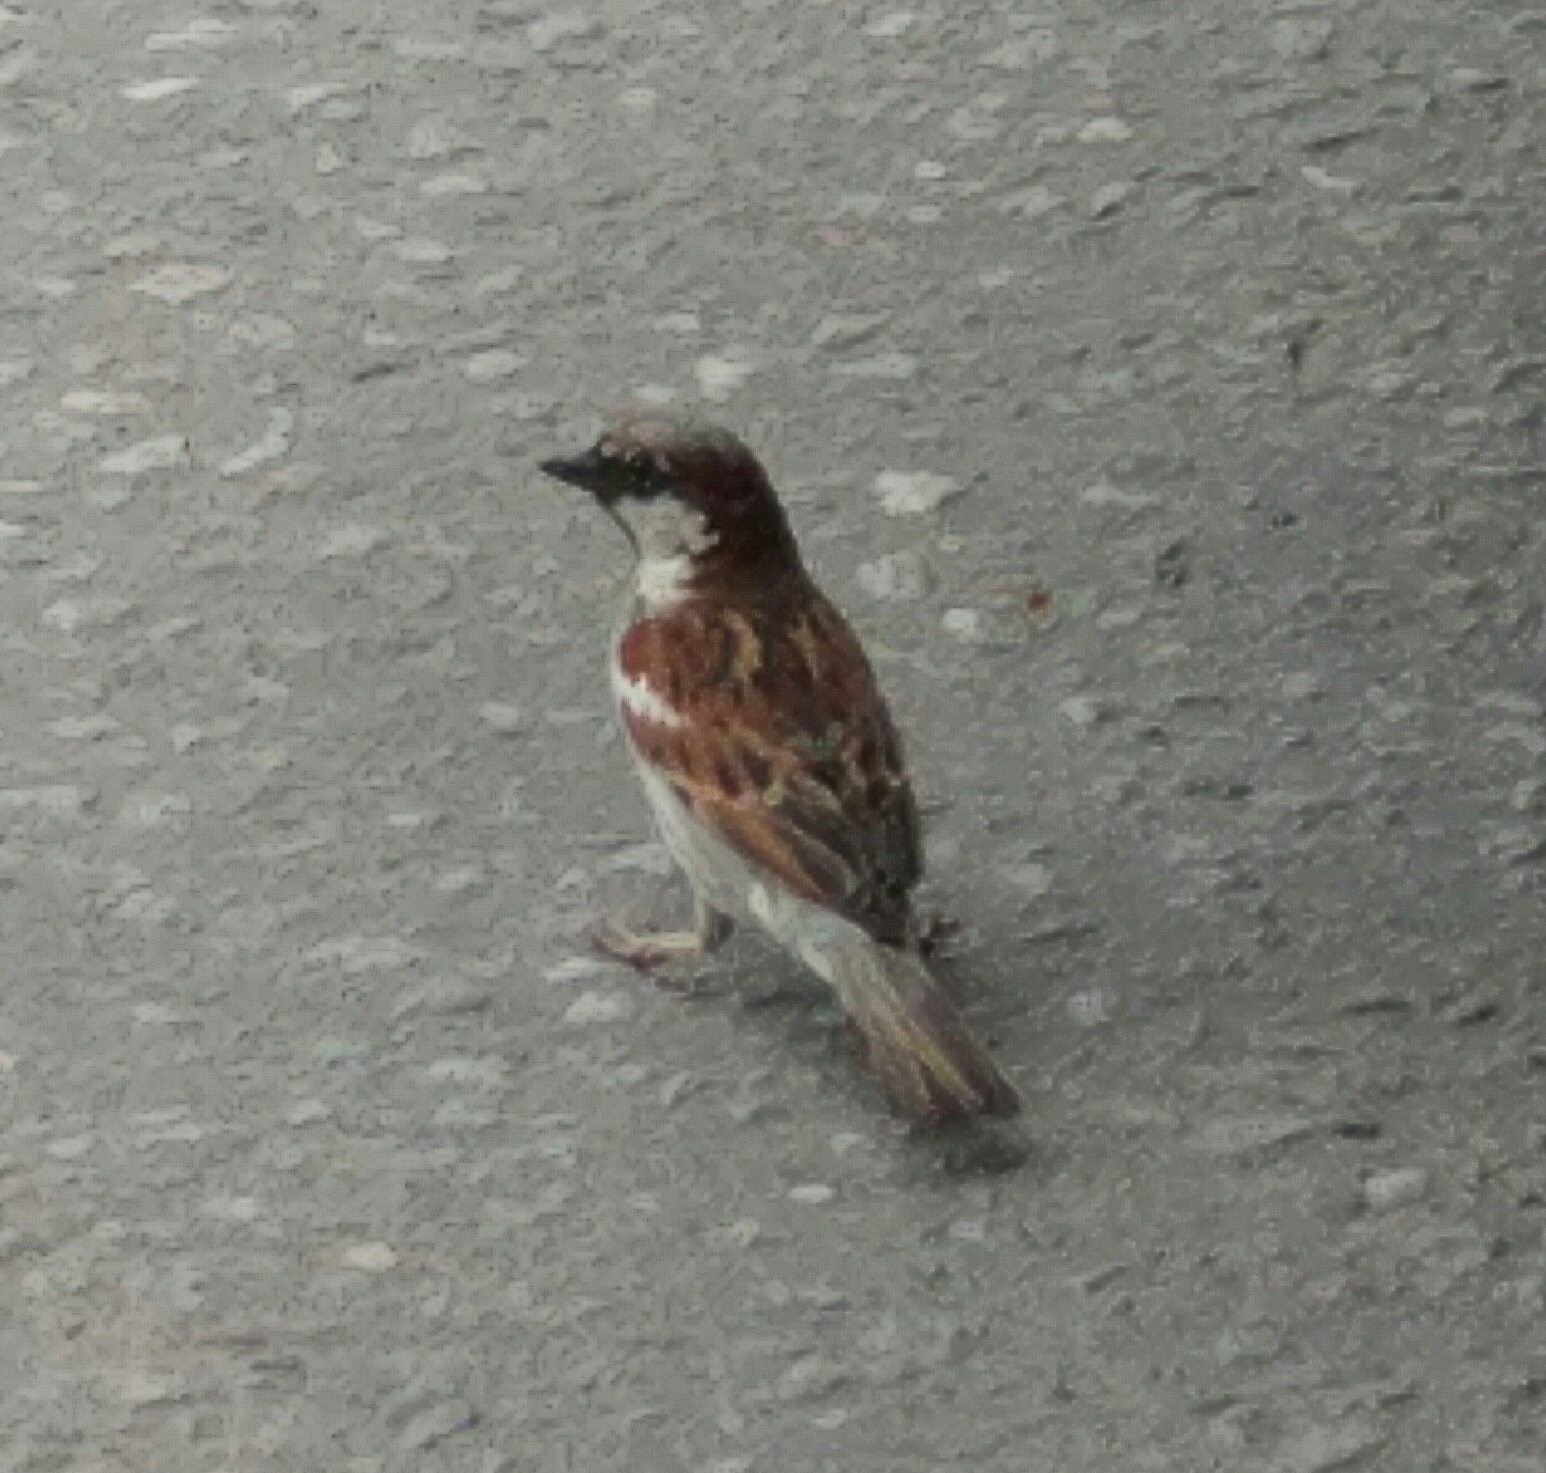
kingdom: Animalia
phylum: Chordata
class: Aves
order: Passeriformes
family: Passeridae
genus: Passer
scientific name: Passer domesticus
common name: House sparrow
